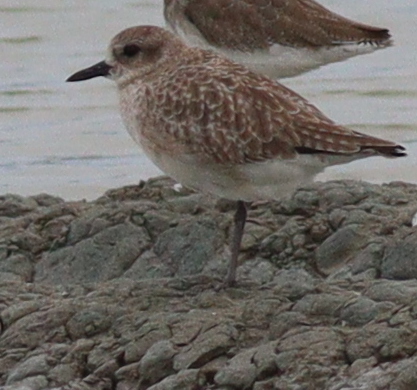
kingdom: Animalia
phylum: Chordata
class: Aves
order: Charadriiformes
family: Charadriidae
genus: Pluvialis
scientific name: Pluvialis squatarola
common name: Grey plover
